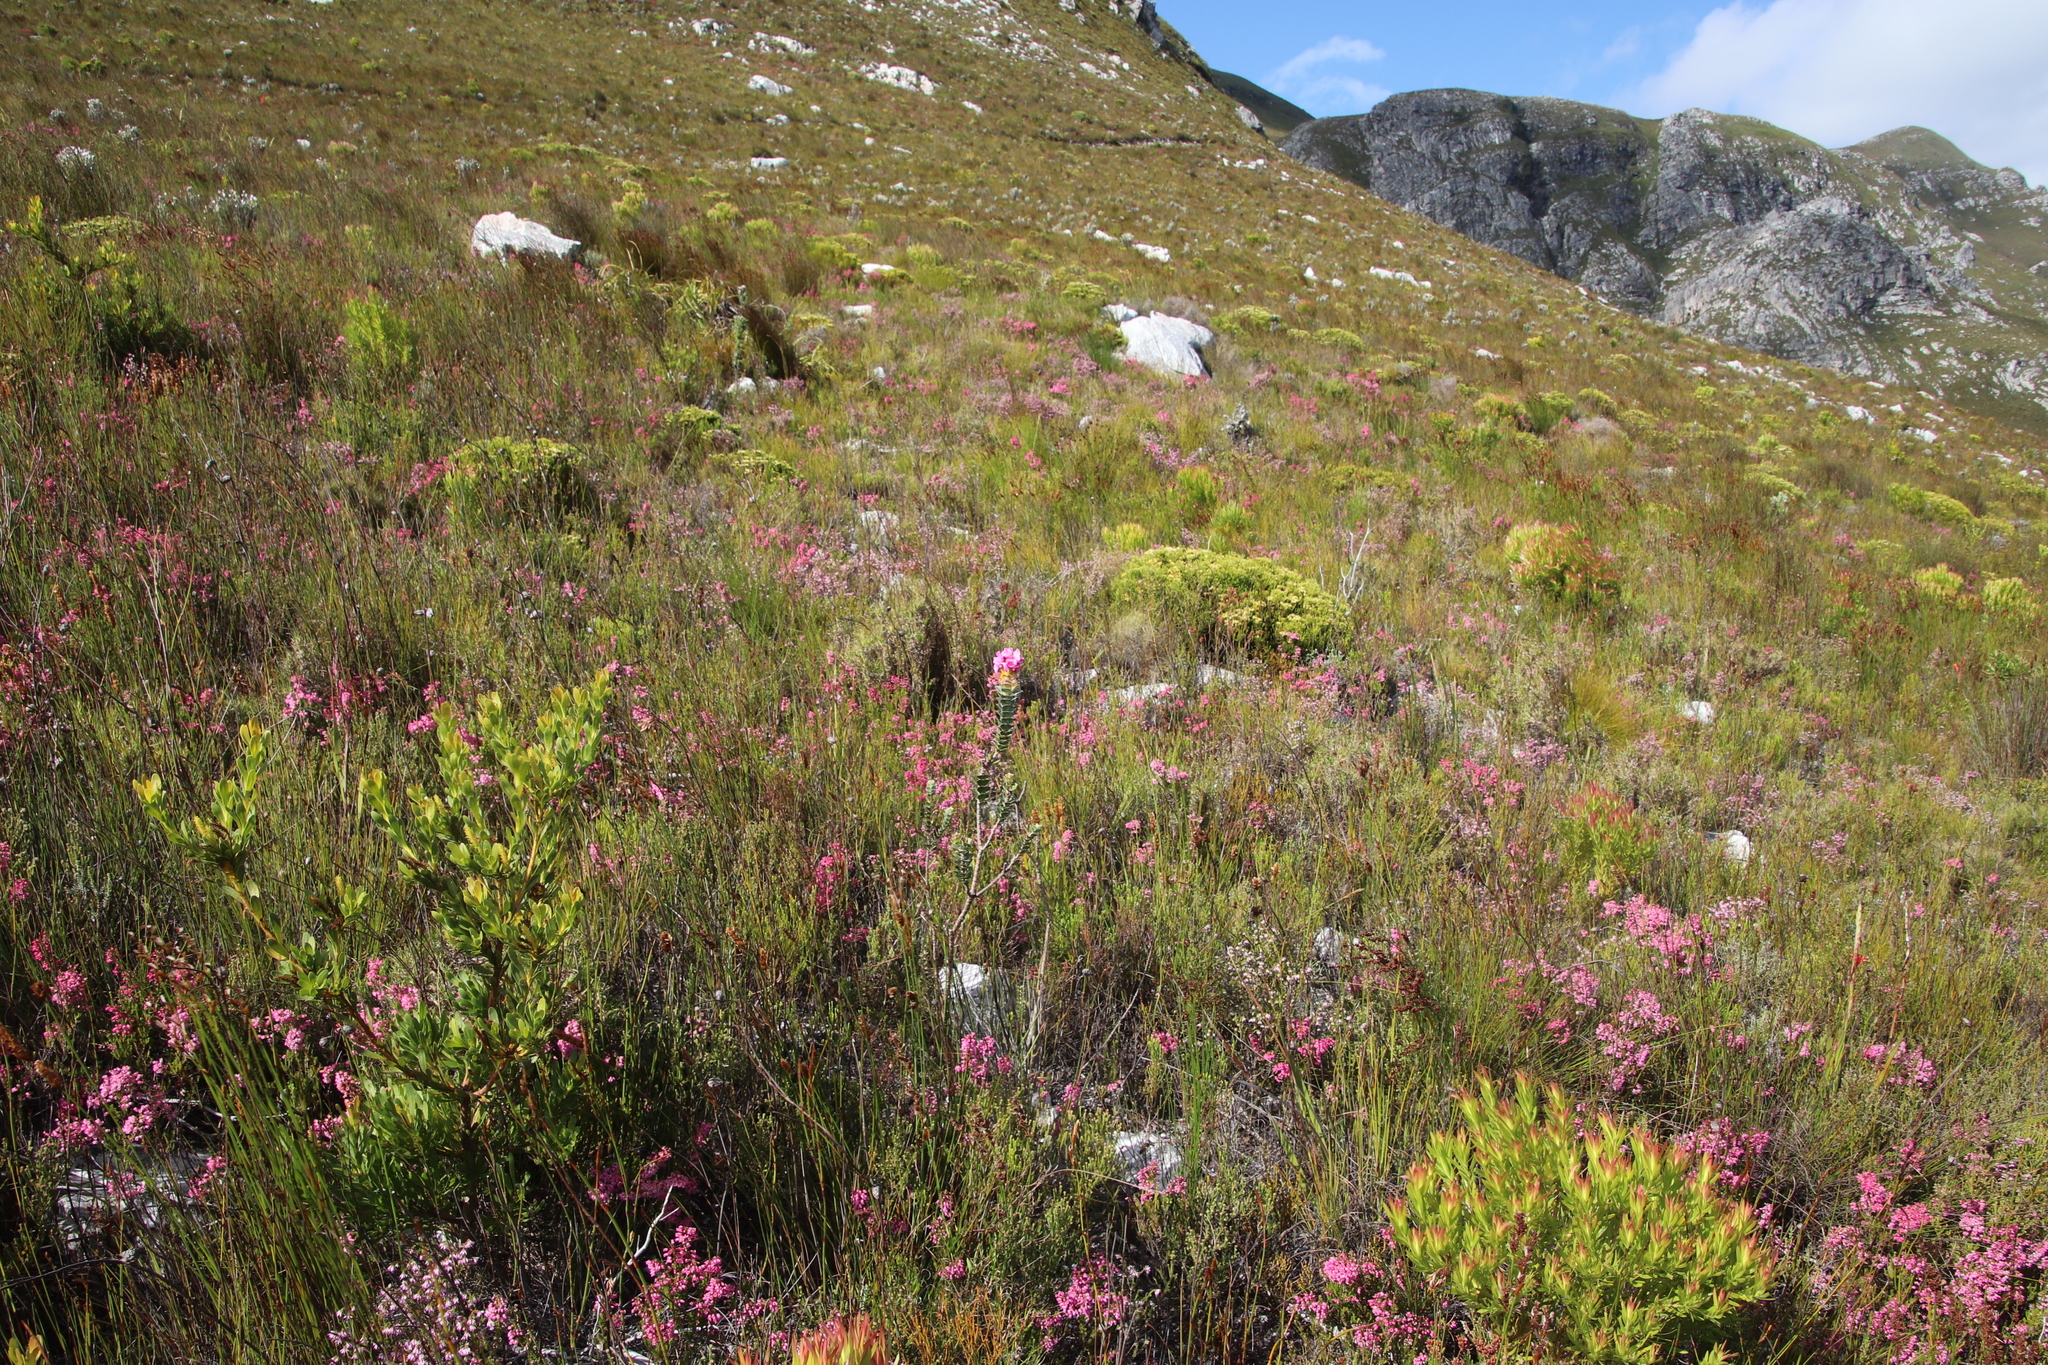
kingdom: Plantae
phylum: Tracheophyta
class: Magnoliopsida
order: Myrtales
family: Penaeaceae
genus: Saltera
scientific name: Saltera sarcocolla
